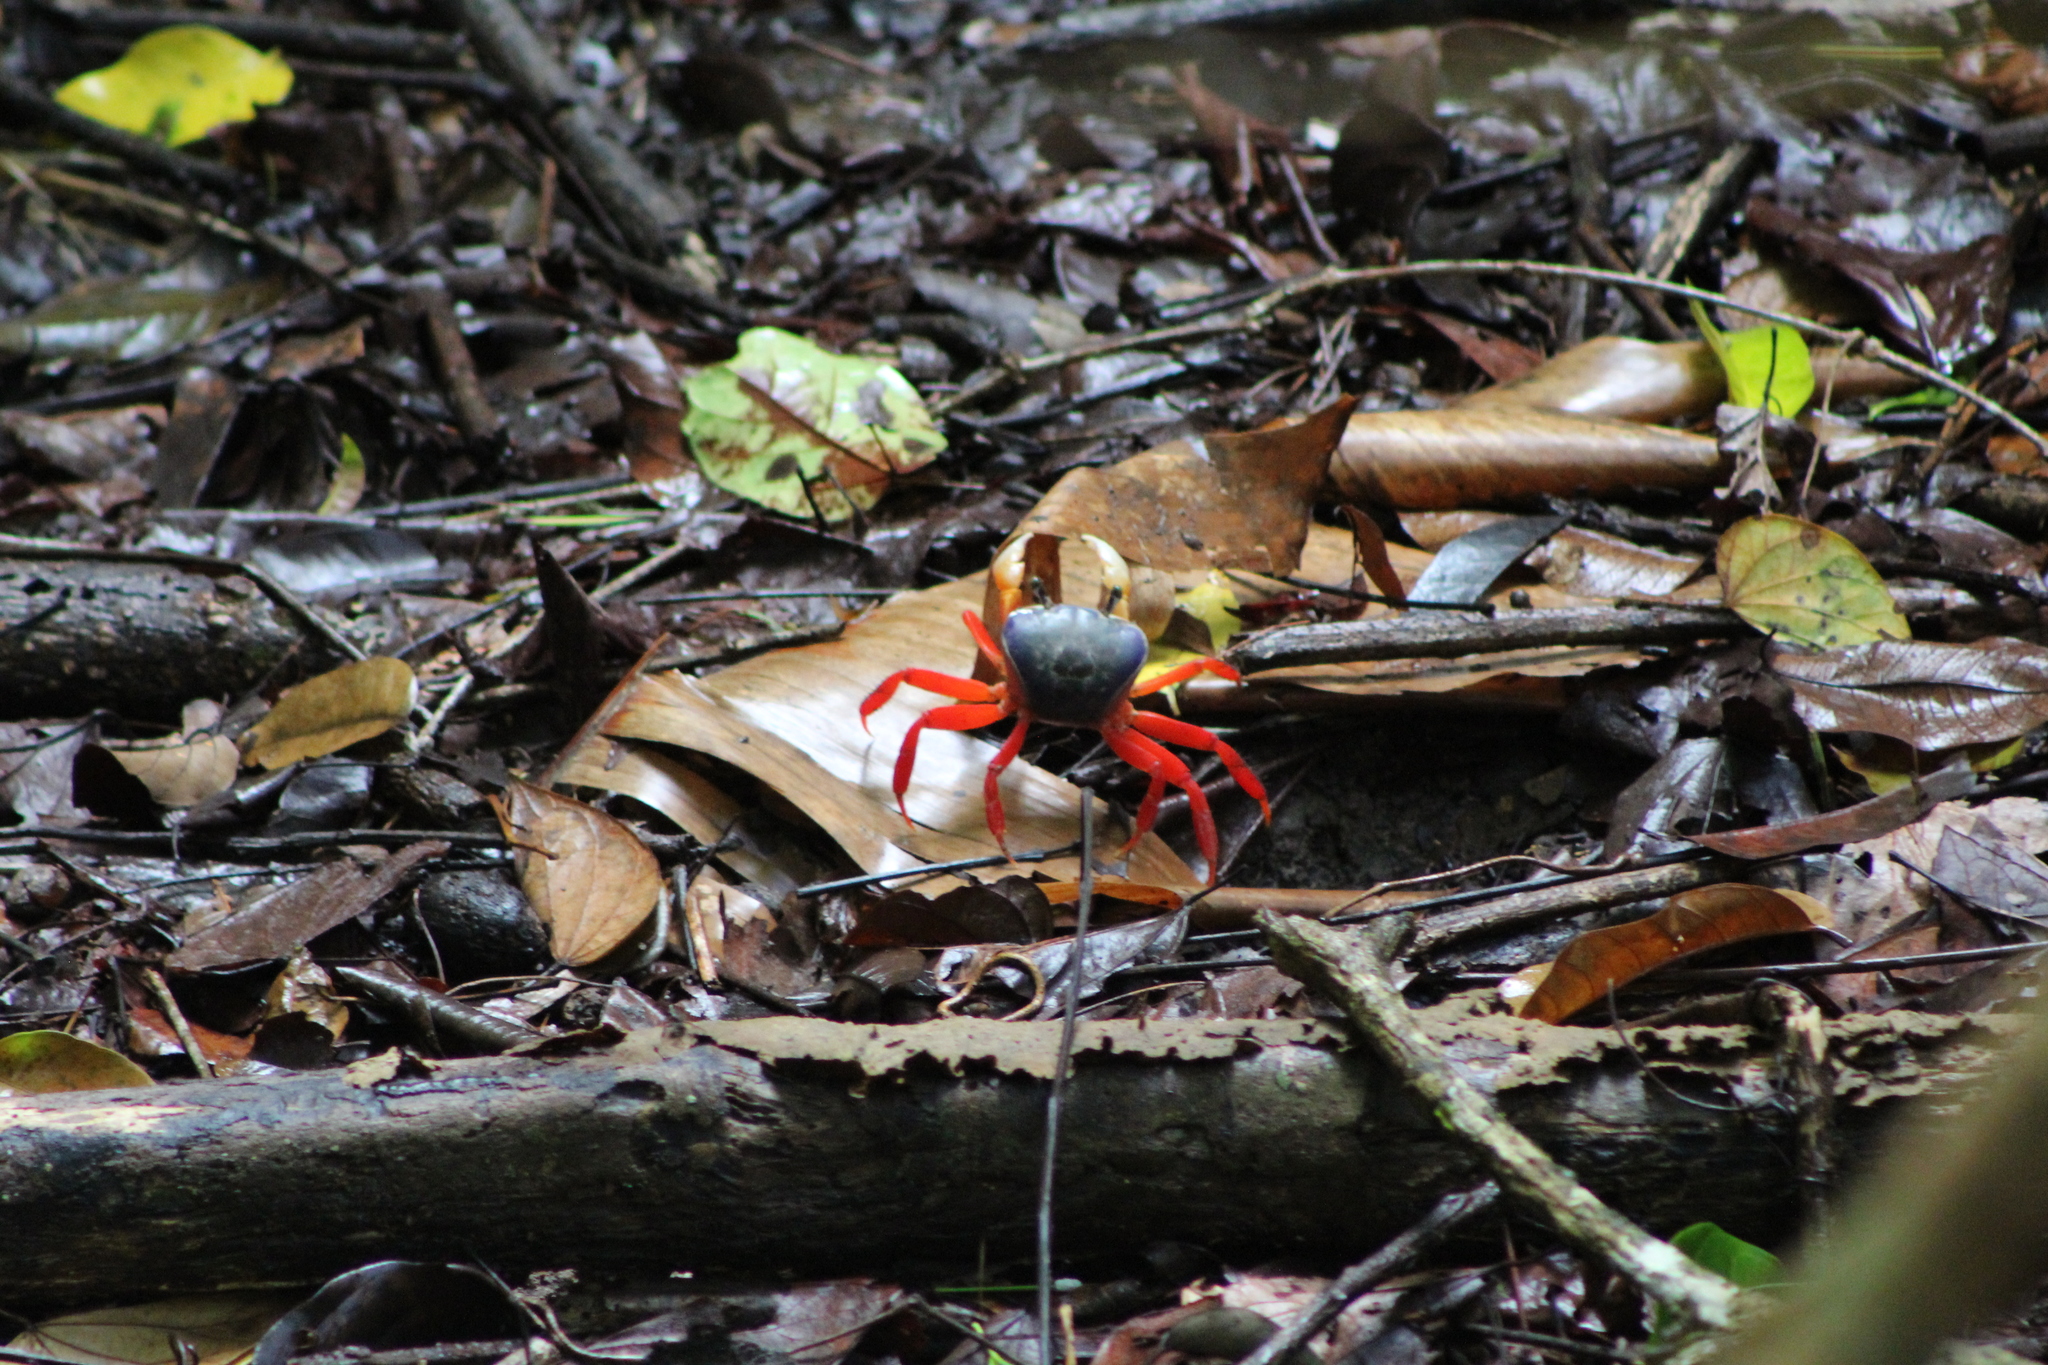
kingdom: Animalia
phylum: Arthropoda
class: Malacostraca
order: Decapoda
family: Gecarcinidae
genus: Cardisoma
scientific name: Cardisoma crassum
